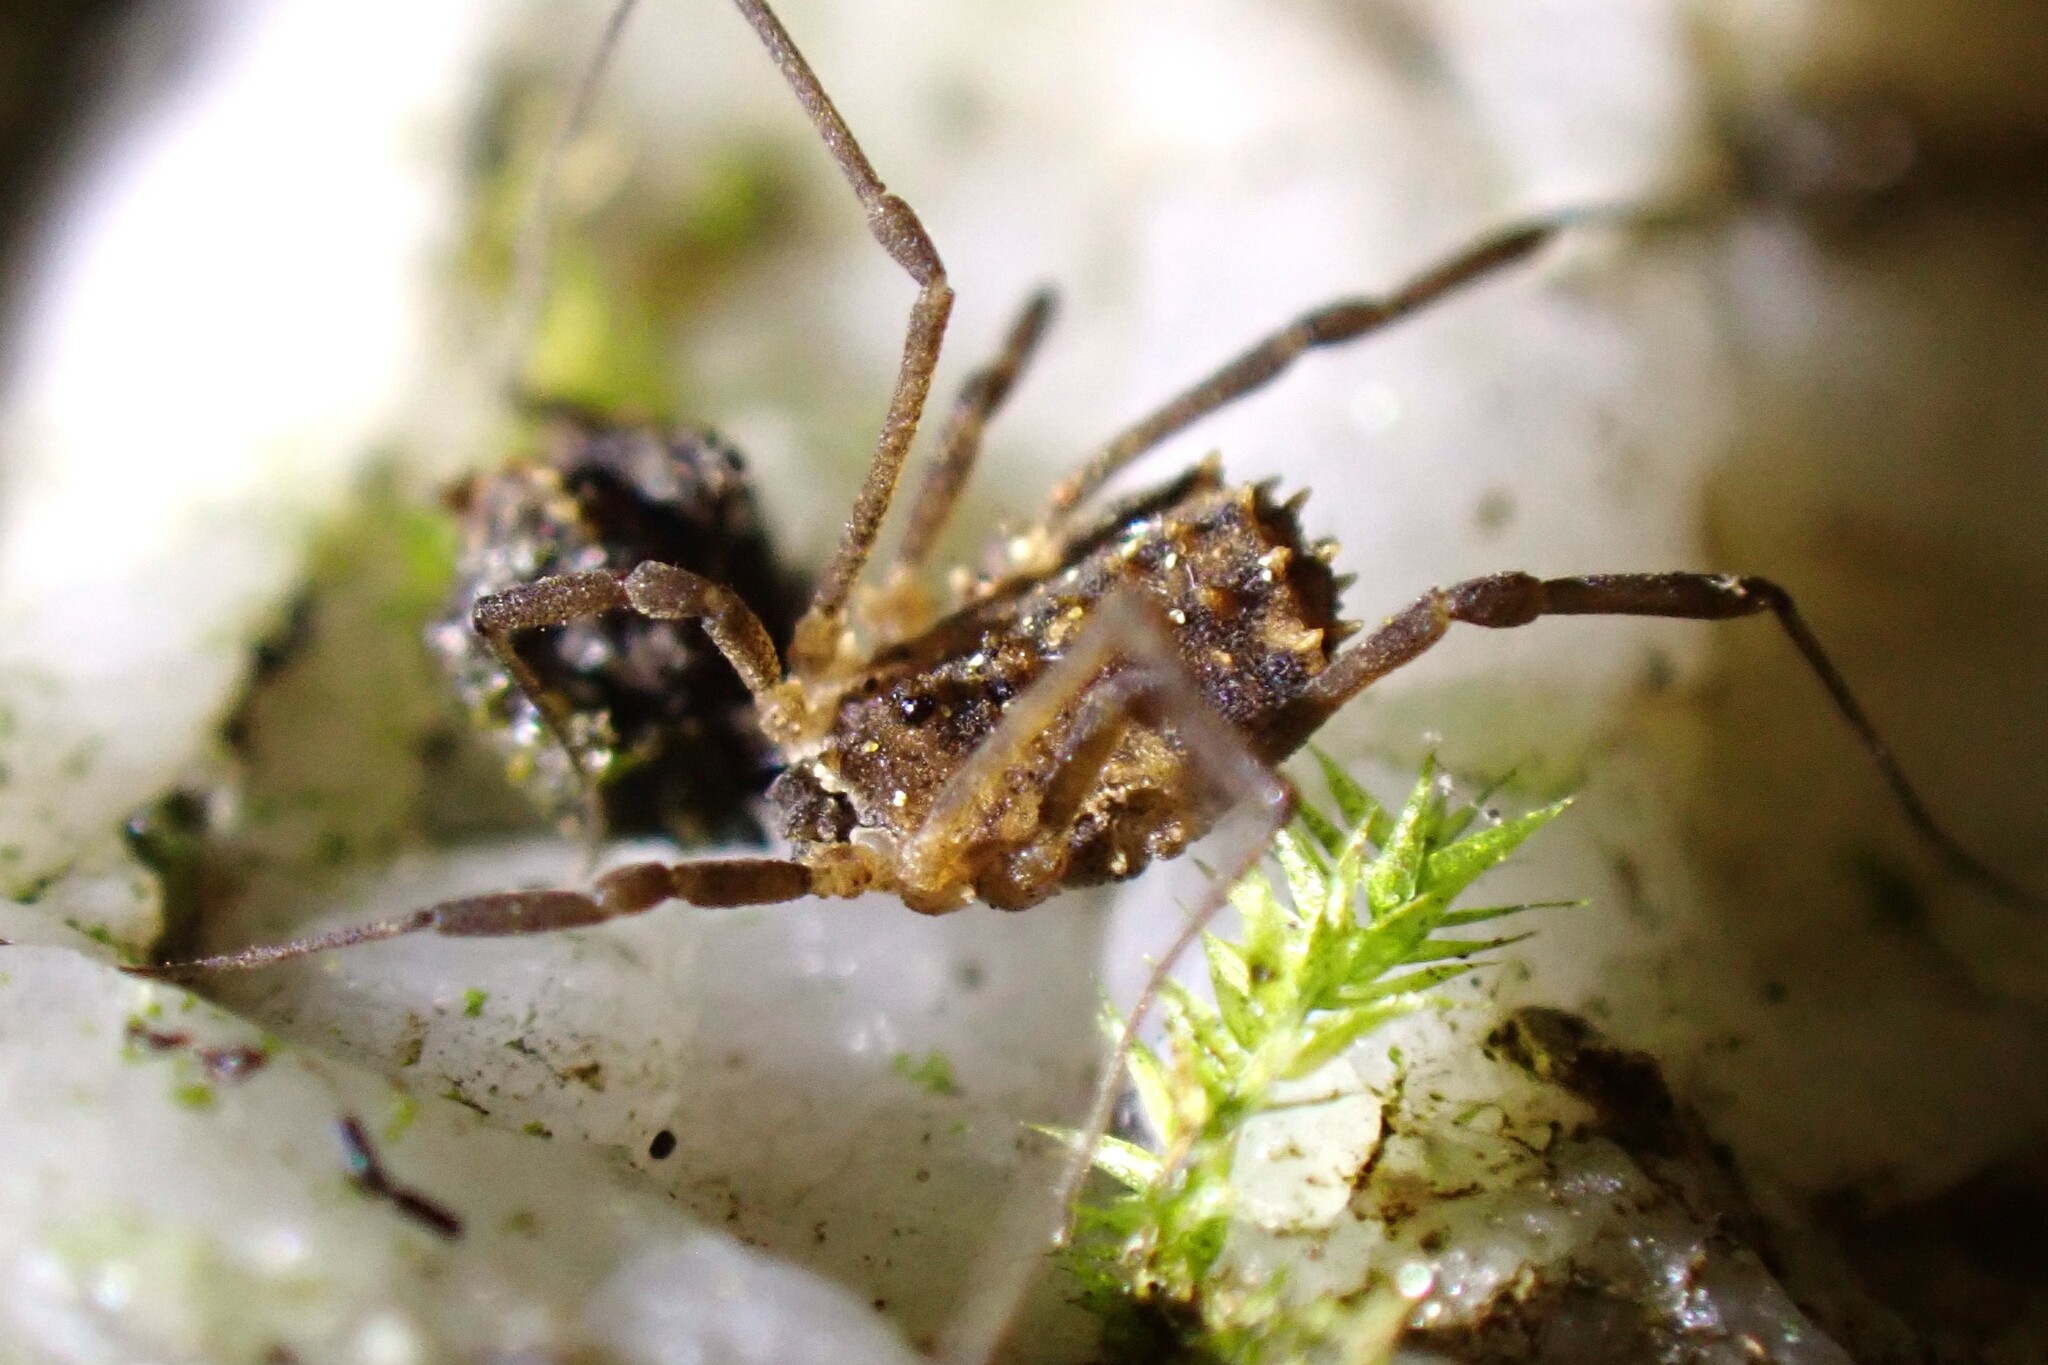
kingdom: Animalia
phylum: Arthropoda
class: Arachnida
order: Opiliones
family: Sclerosomatidae
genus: Homalenotus
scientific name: Homalenotus remyi
